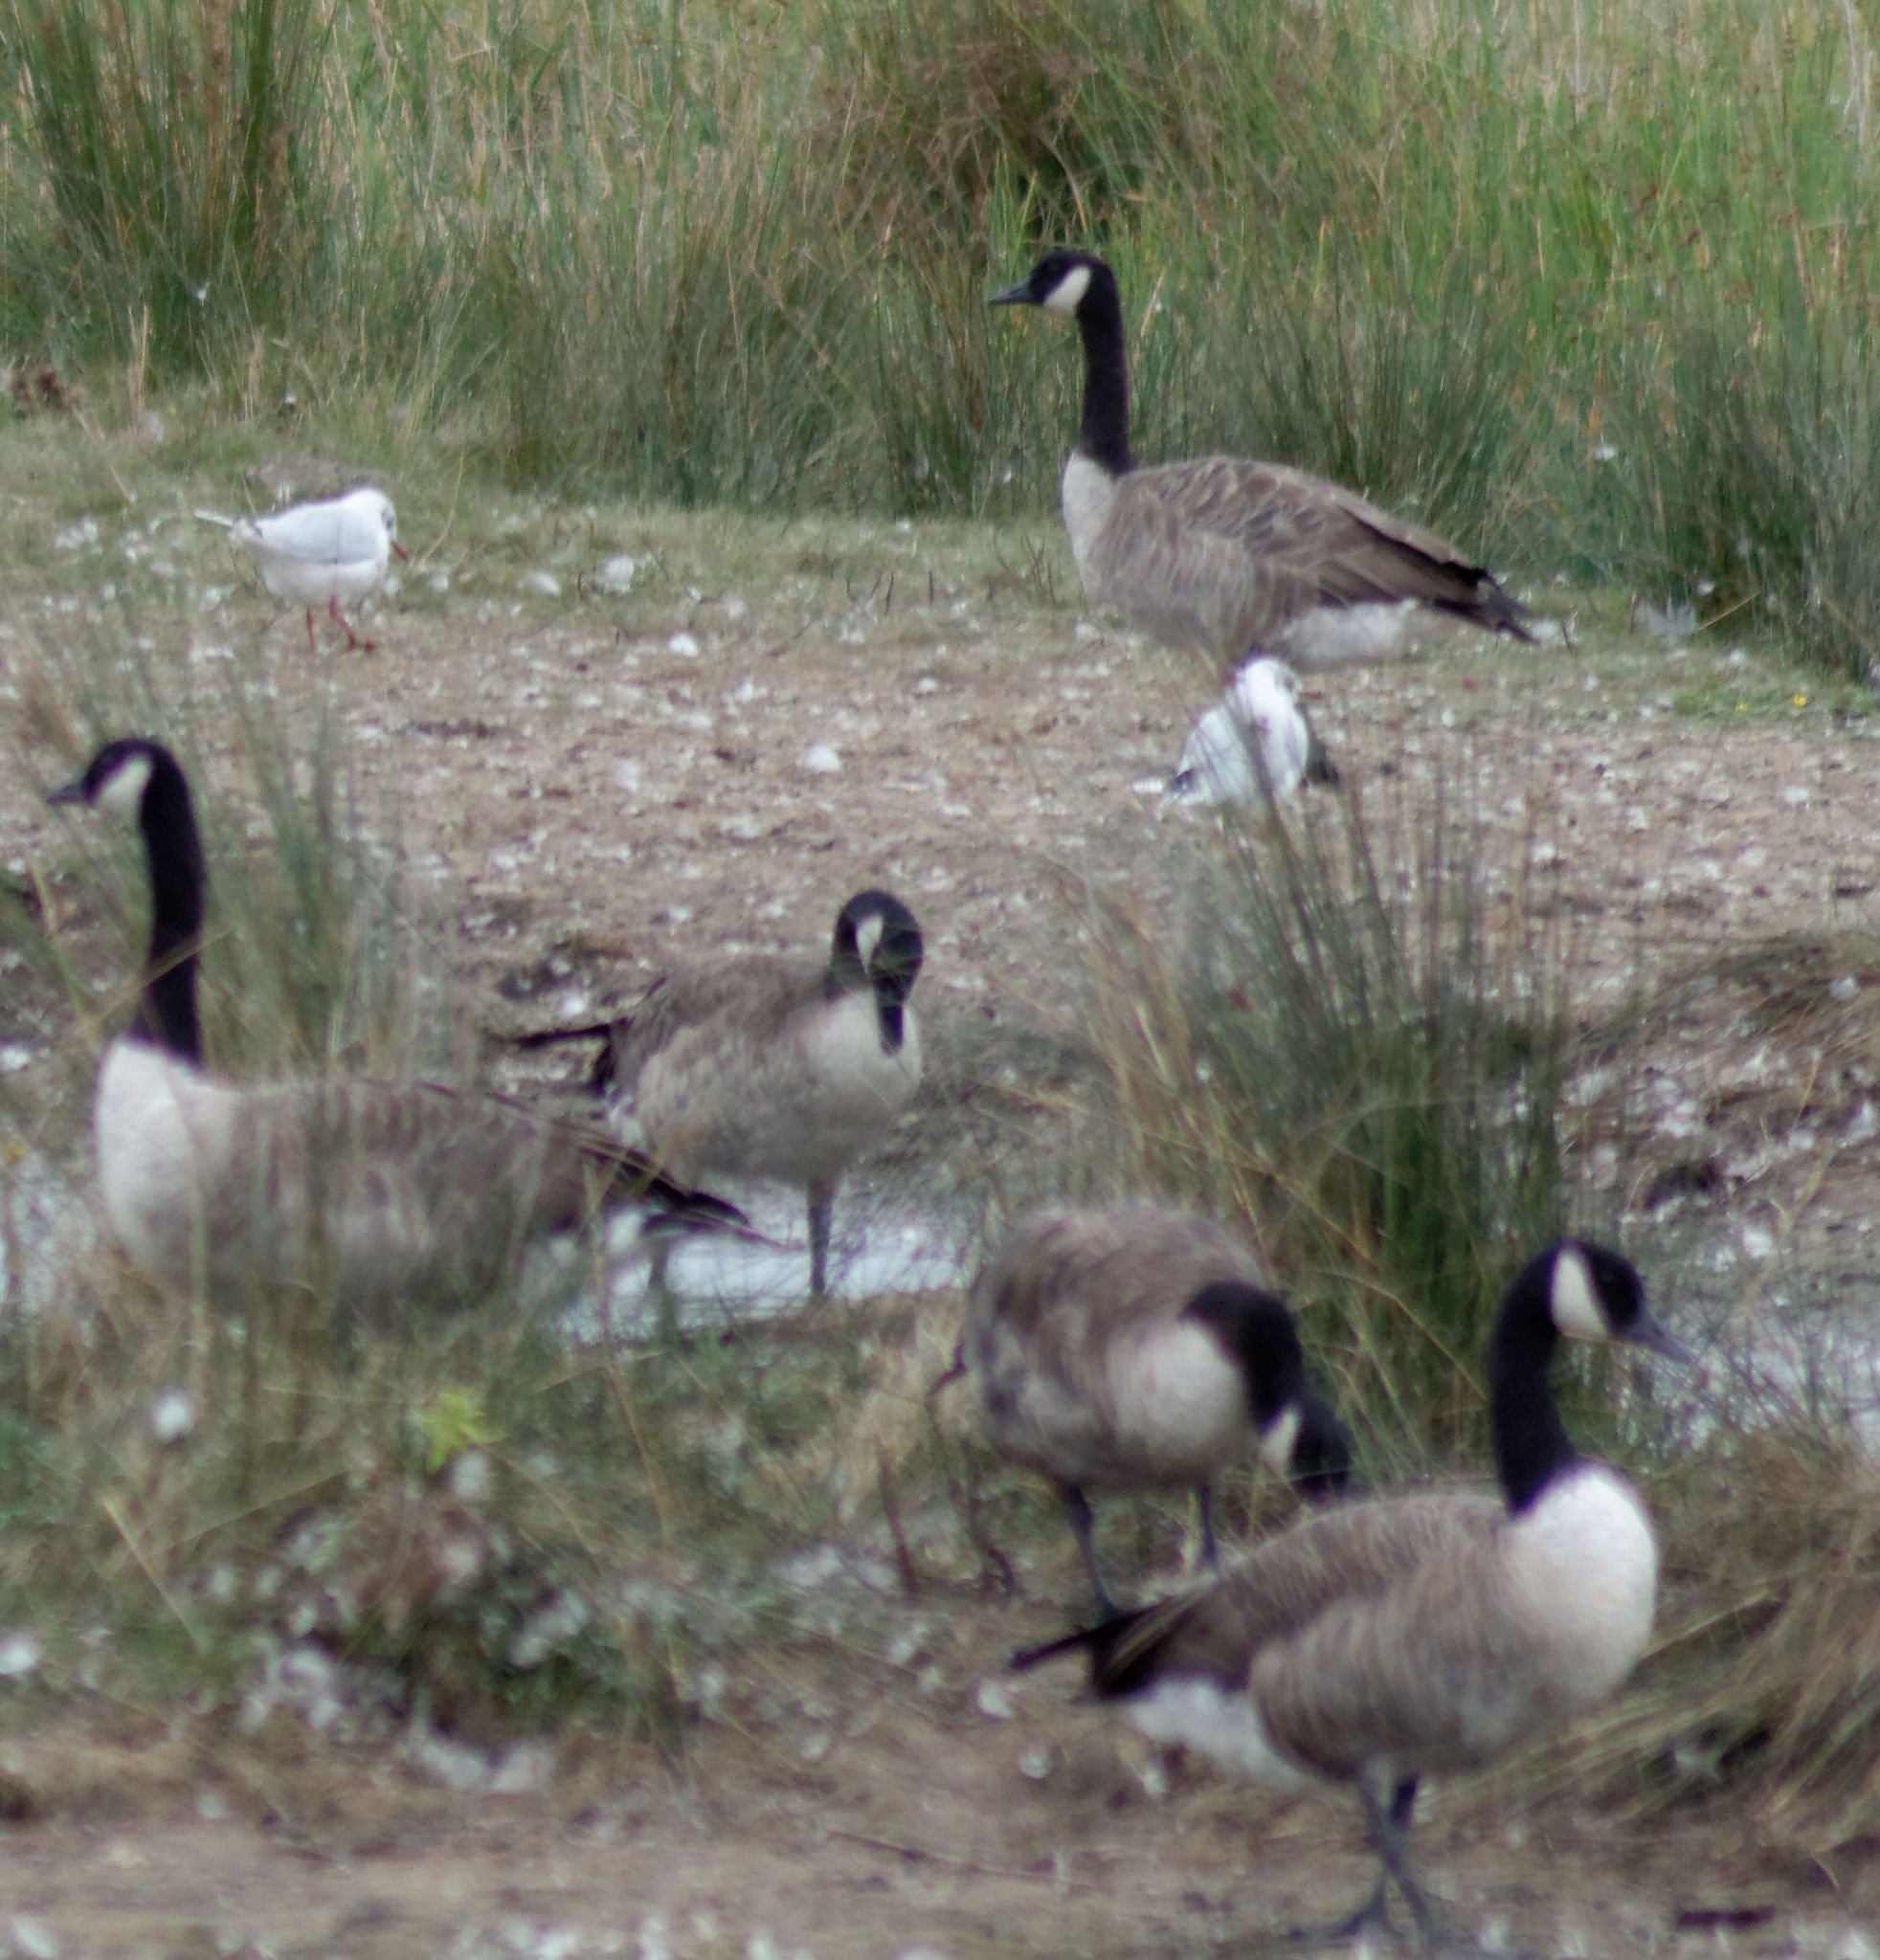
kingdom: Animalia
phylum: Chordata
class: Aves
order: Anseriformes
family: Anatidae
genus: Branta
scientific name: Branta canadensis
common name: Canada goose
